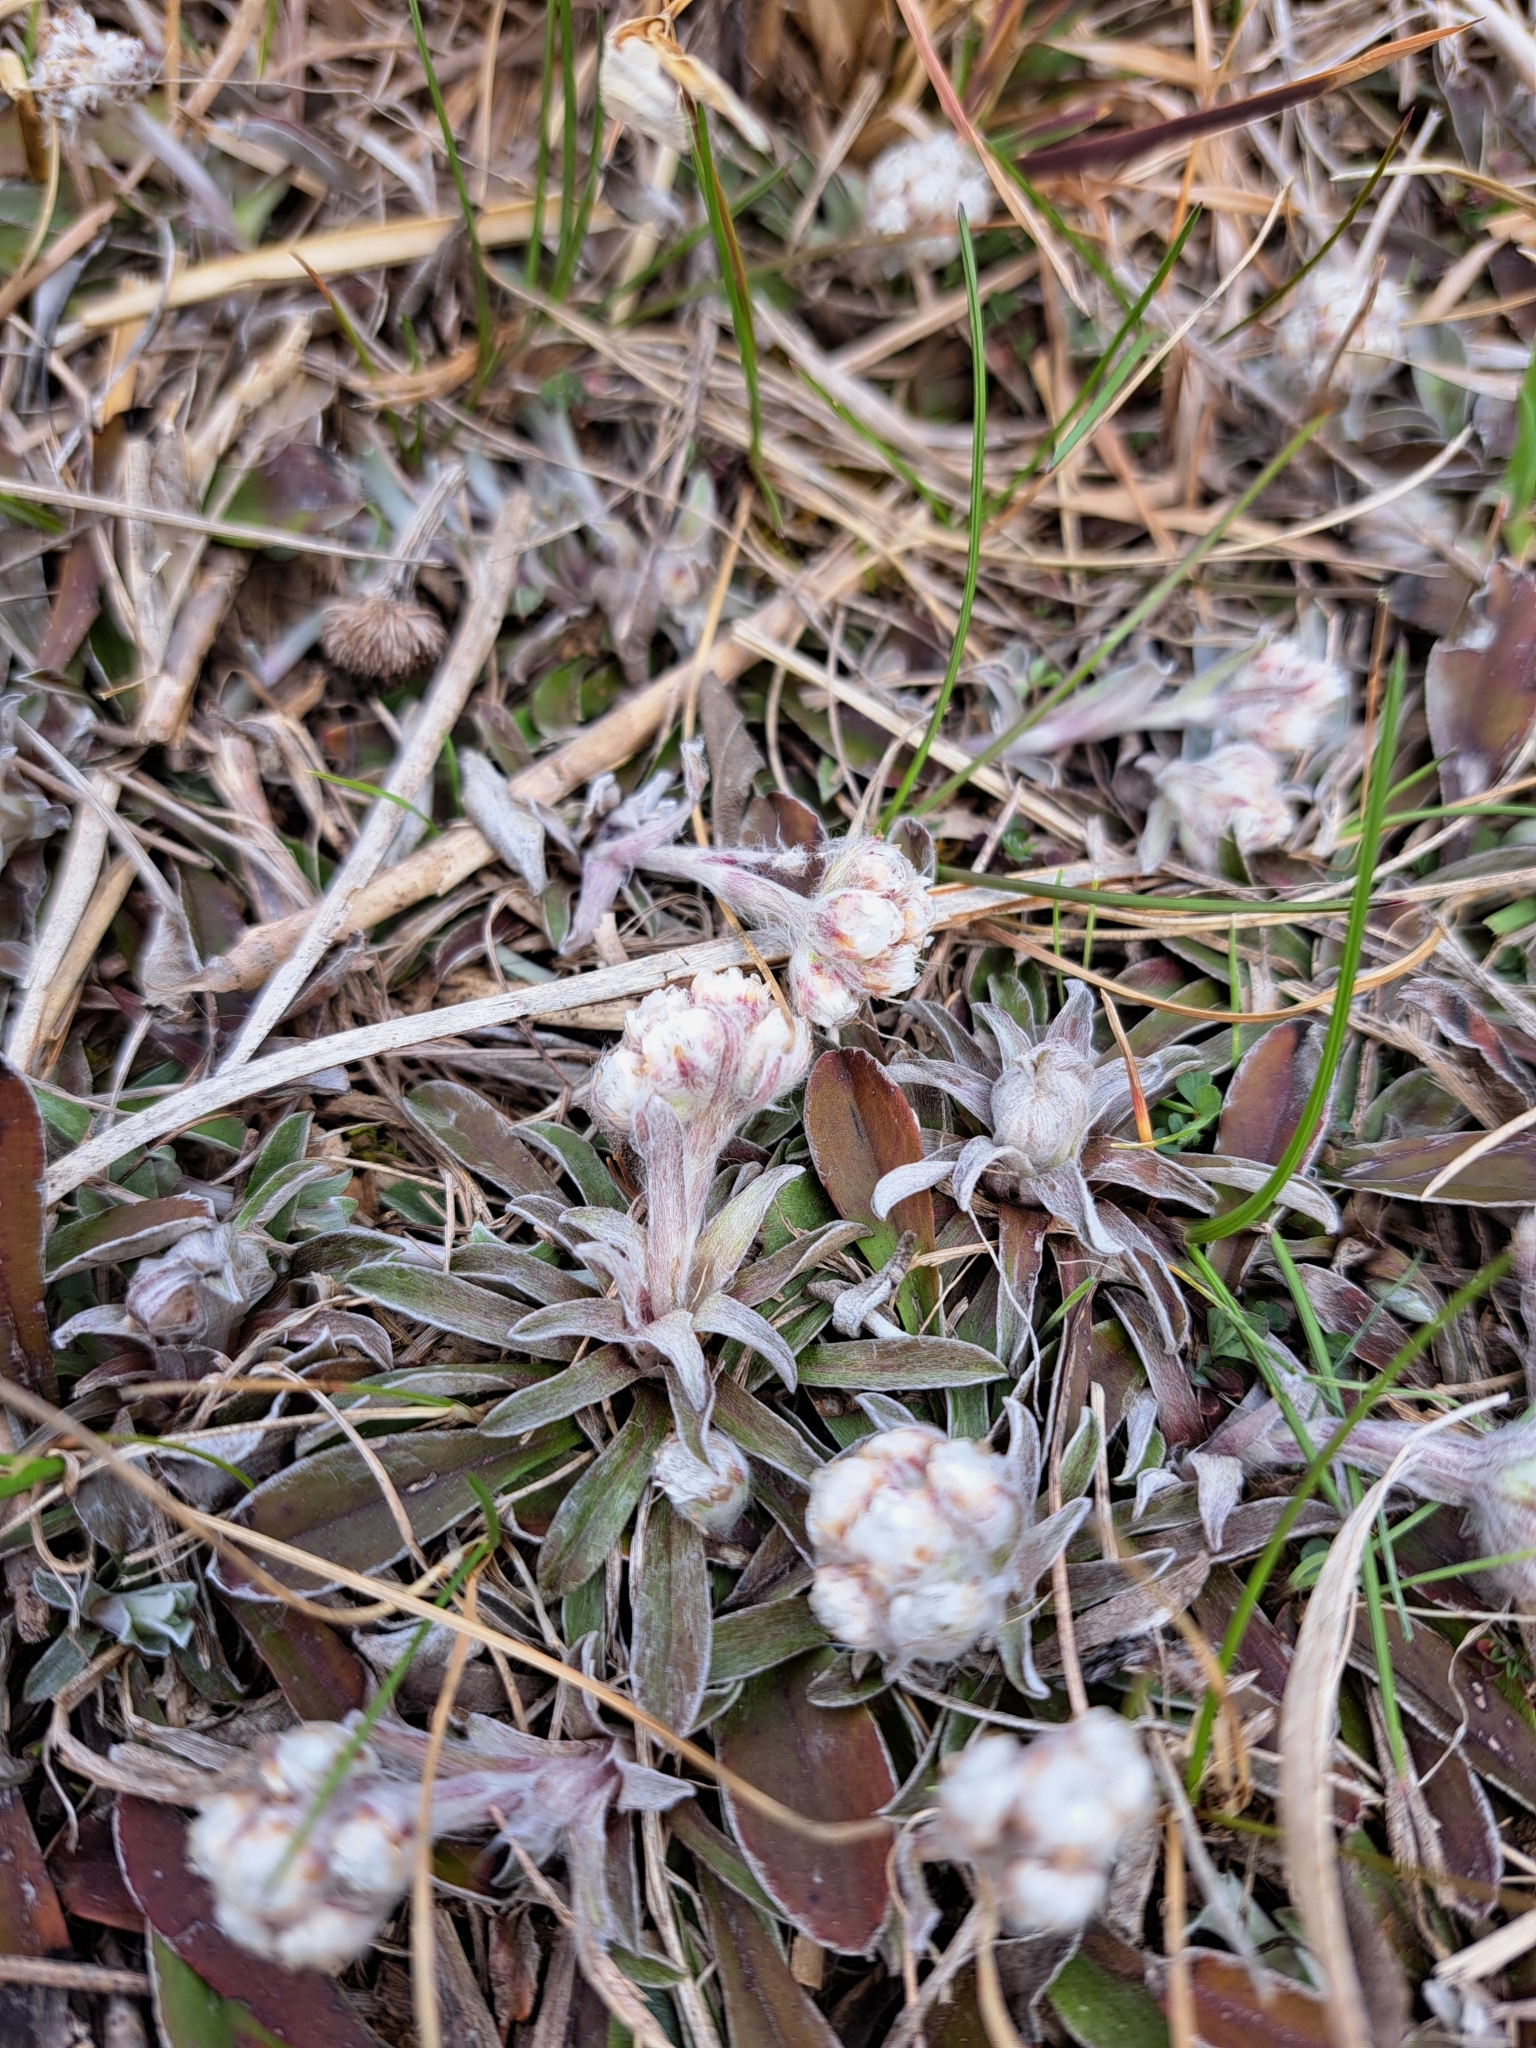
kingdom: Plantae
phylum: Tracheophyta
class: Magnoliopsida
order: Asterales
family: Asteraceae
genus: Antennaria
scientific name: Antennaria neglecta
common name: Field pussytoes
